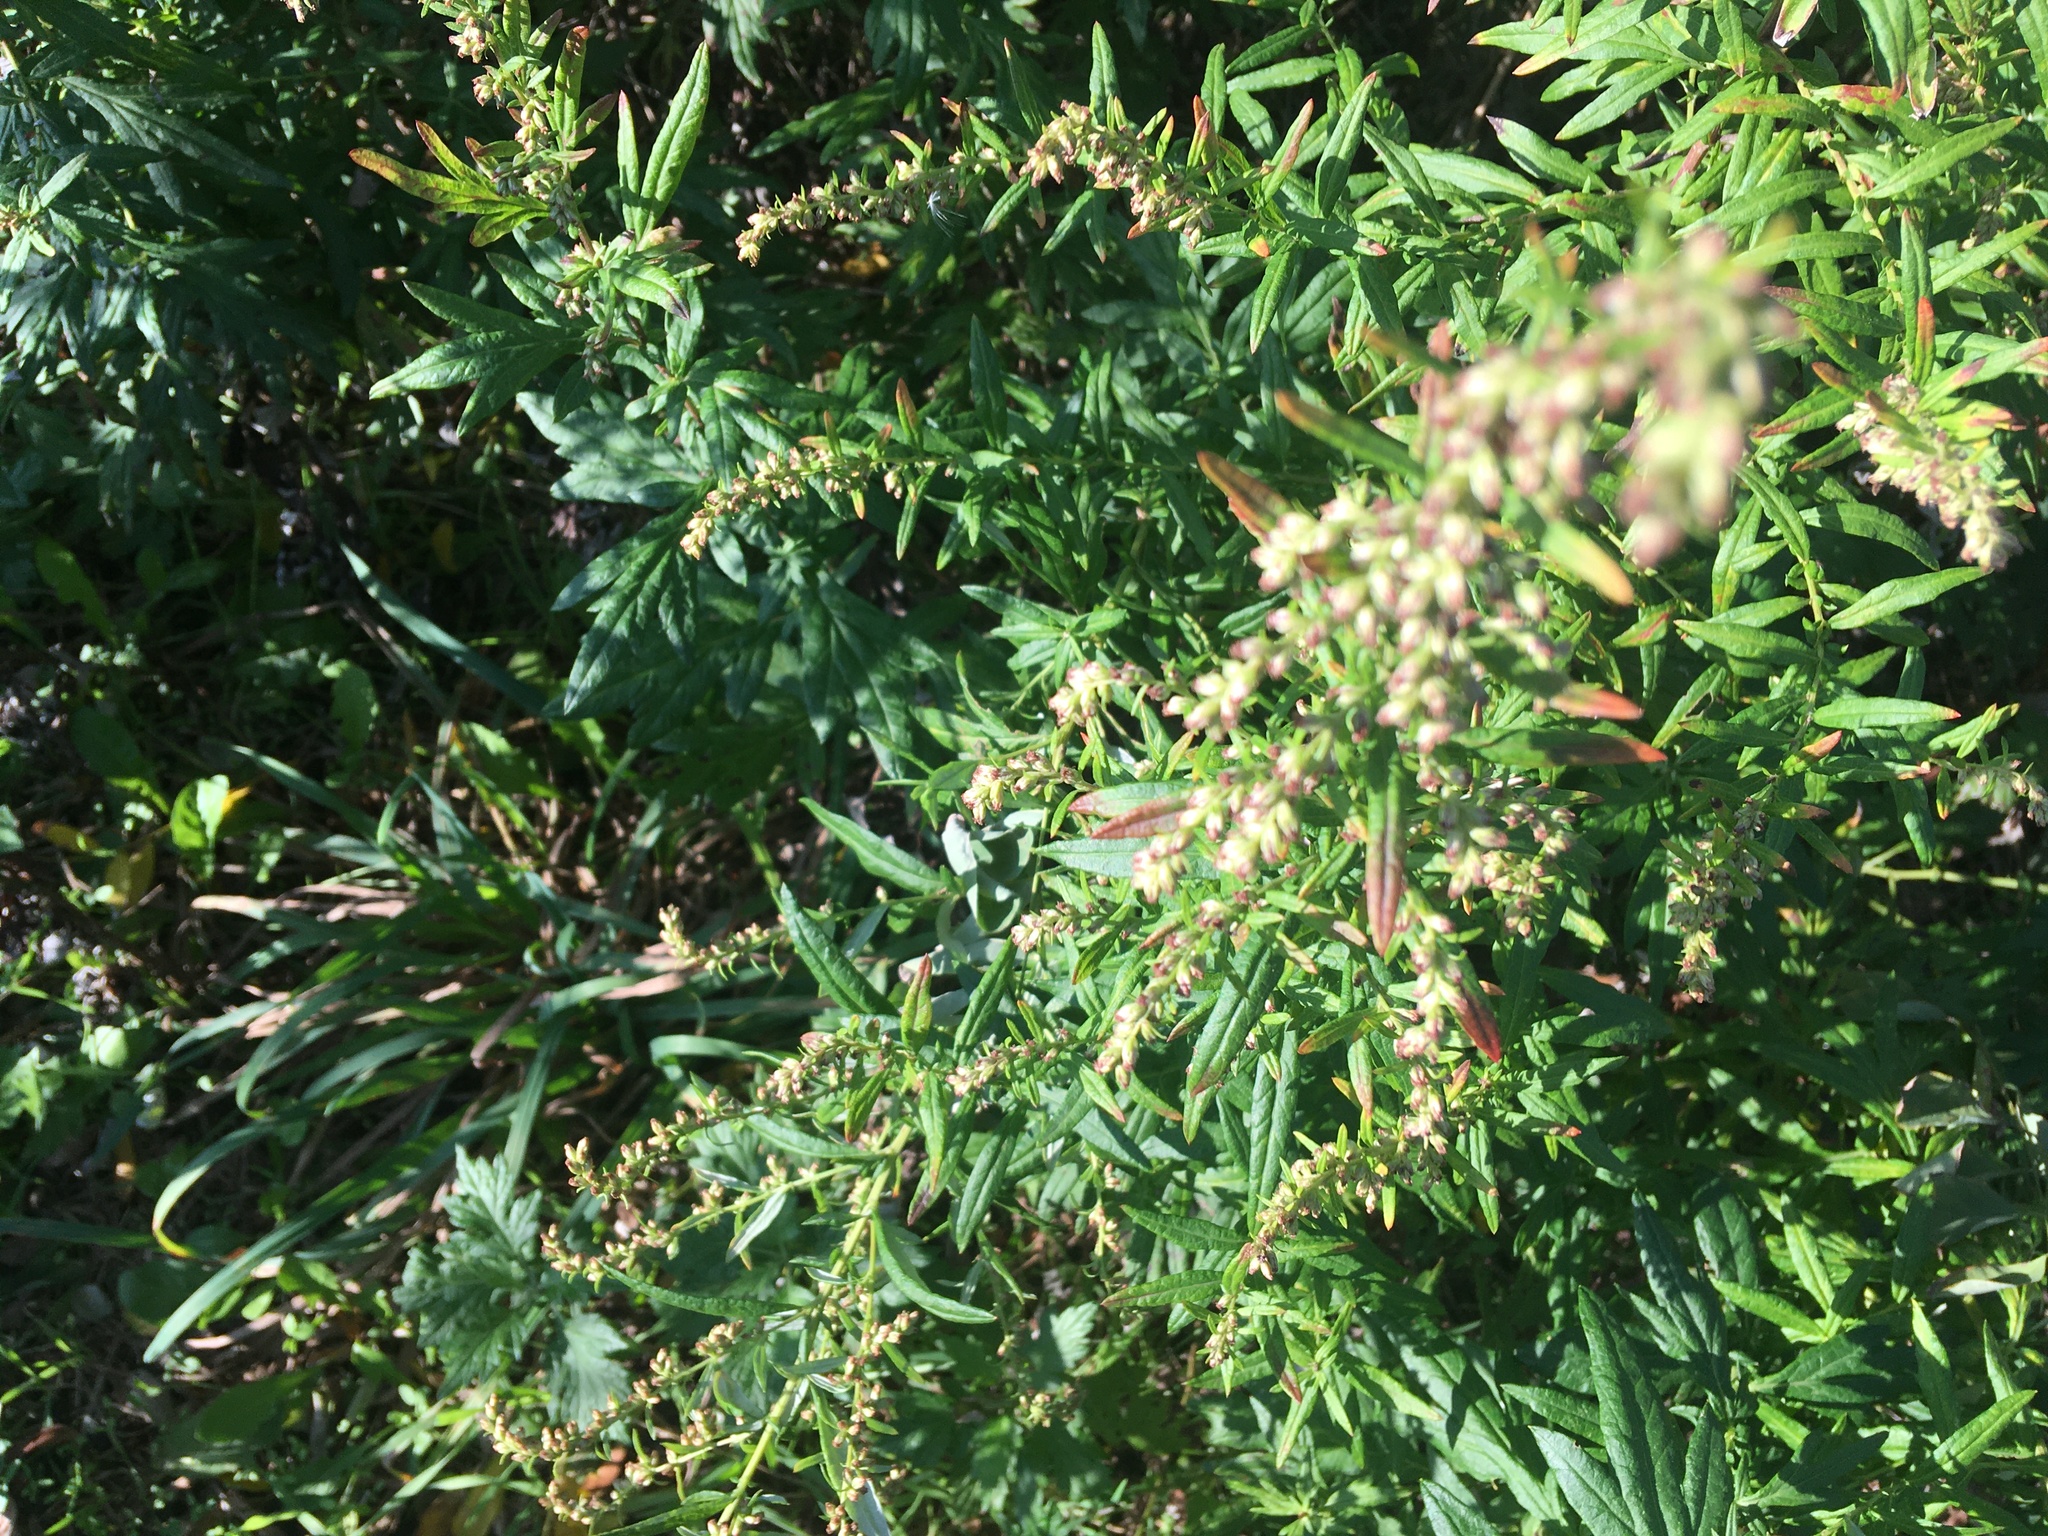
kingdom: Plantae
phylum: Tracheophyta
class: Magnoliopsida
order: Asterales
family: Asteraceae
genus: Artemisia
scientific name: Artemisia vulgaris
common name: Mugwort
